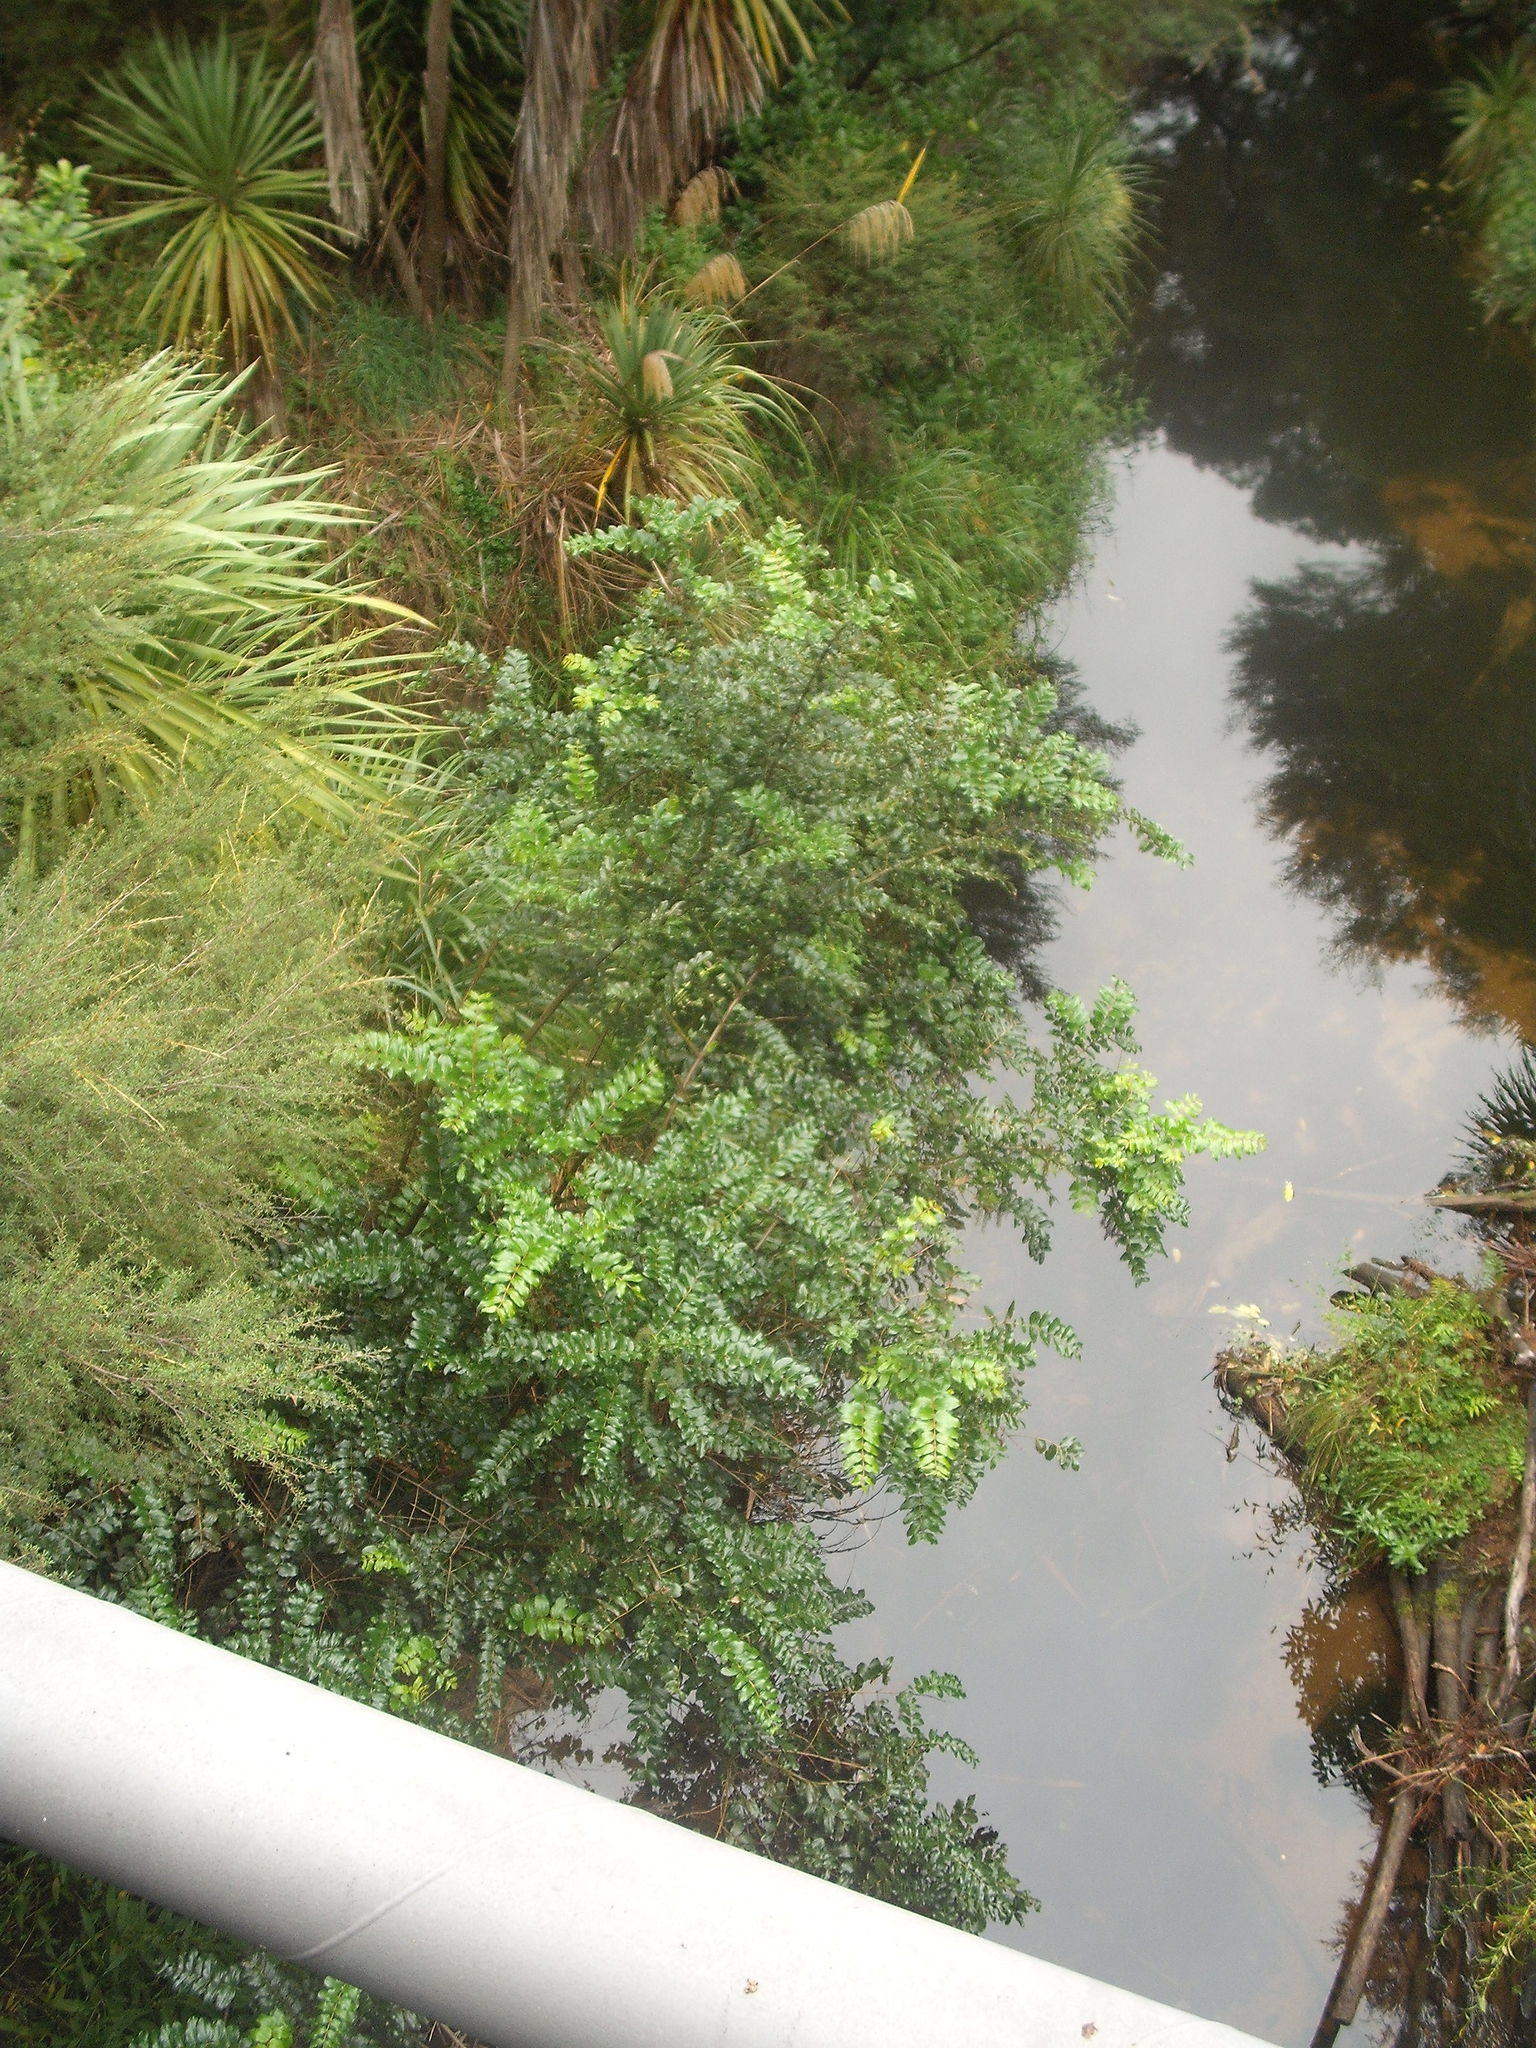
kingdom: Plantae
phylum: Tracheophyta
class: Magnoliopsida
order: Cucurbitales
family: Coriariaceae
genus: Coriaria
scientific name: Coriaria arborea
